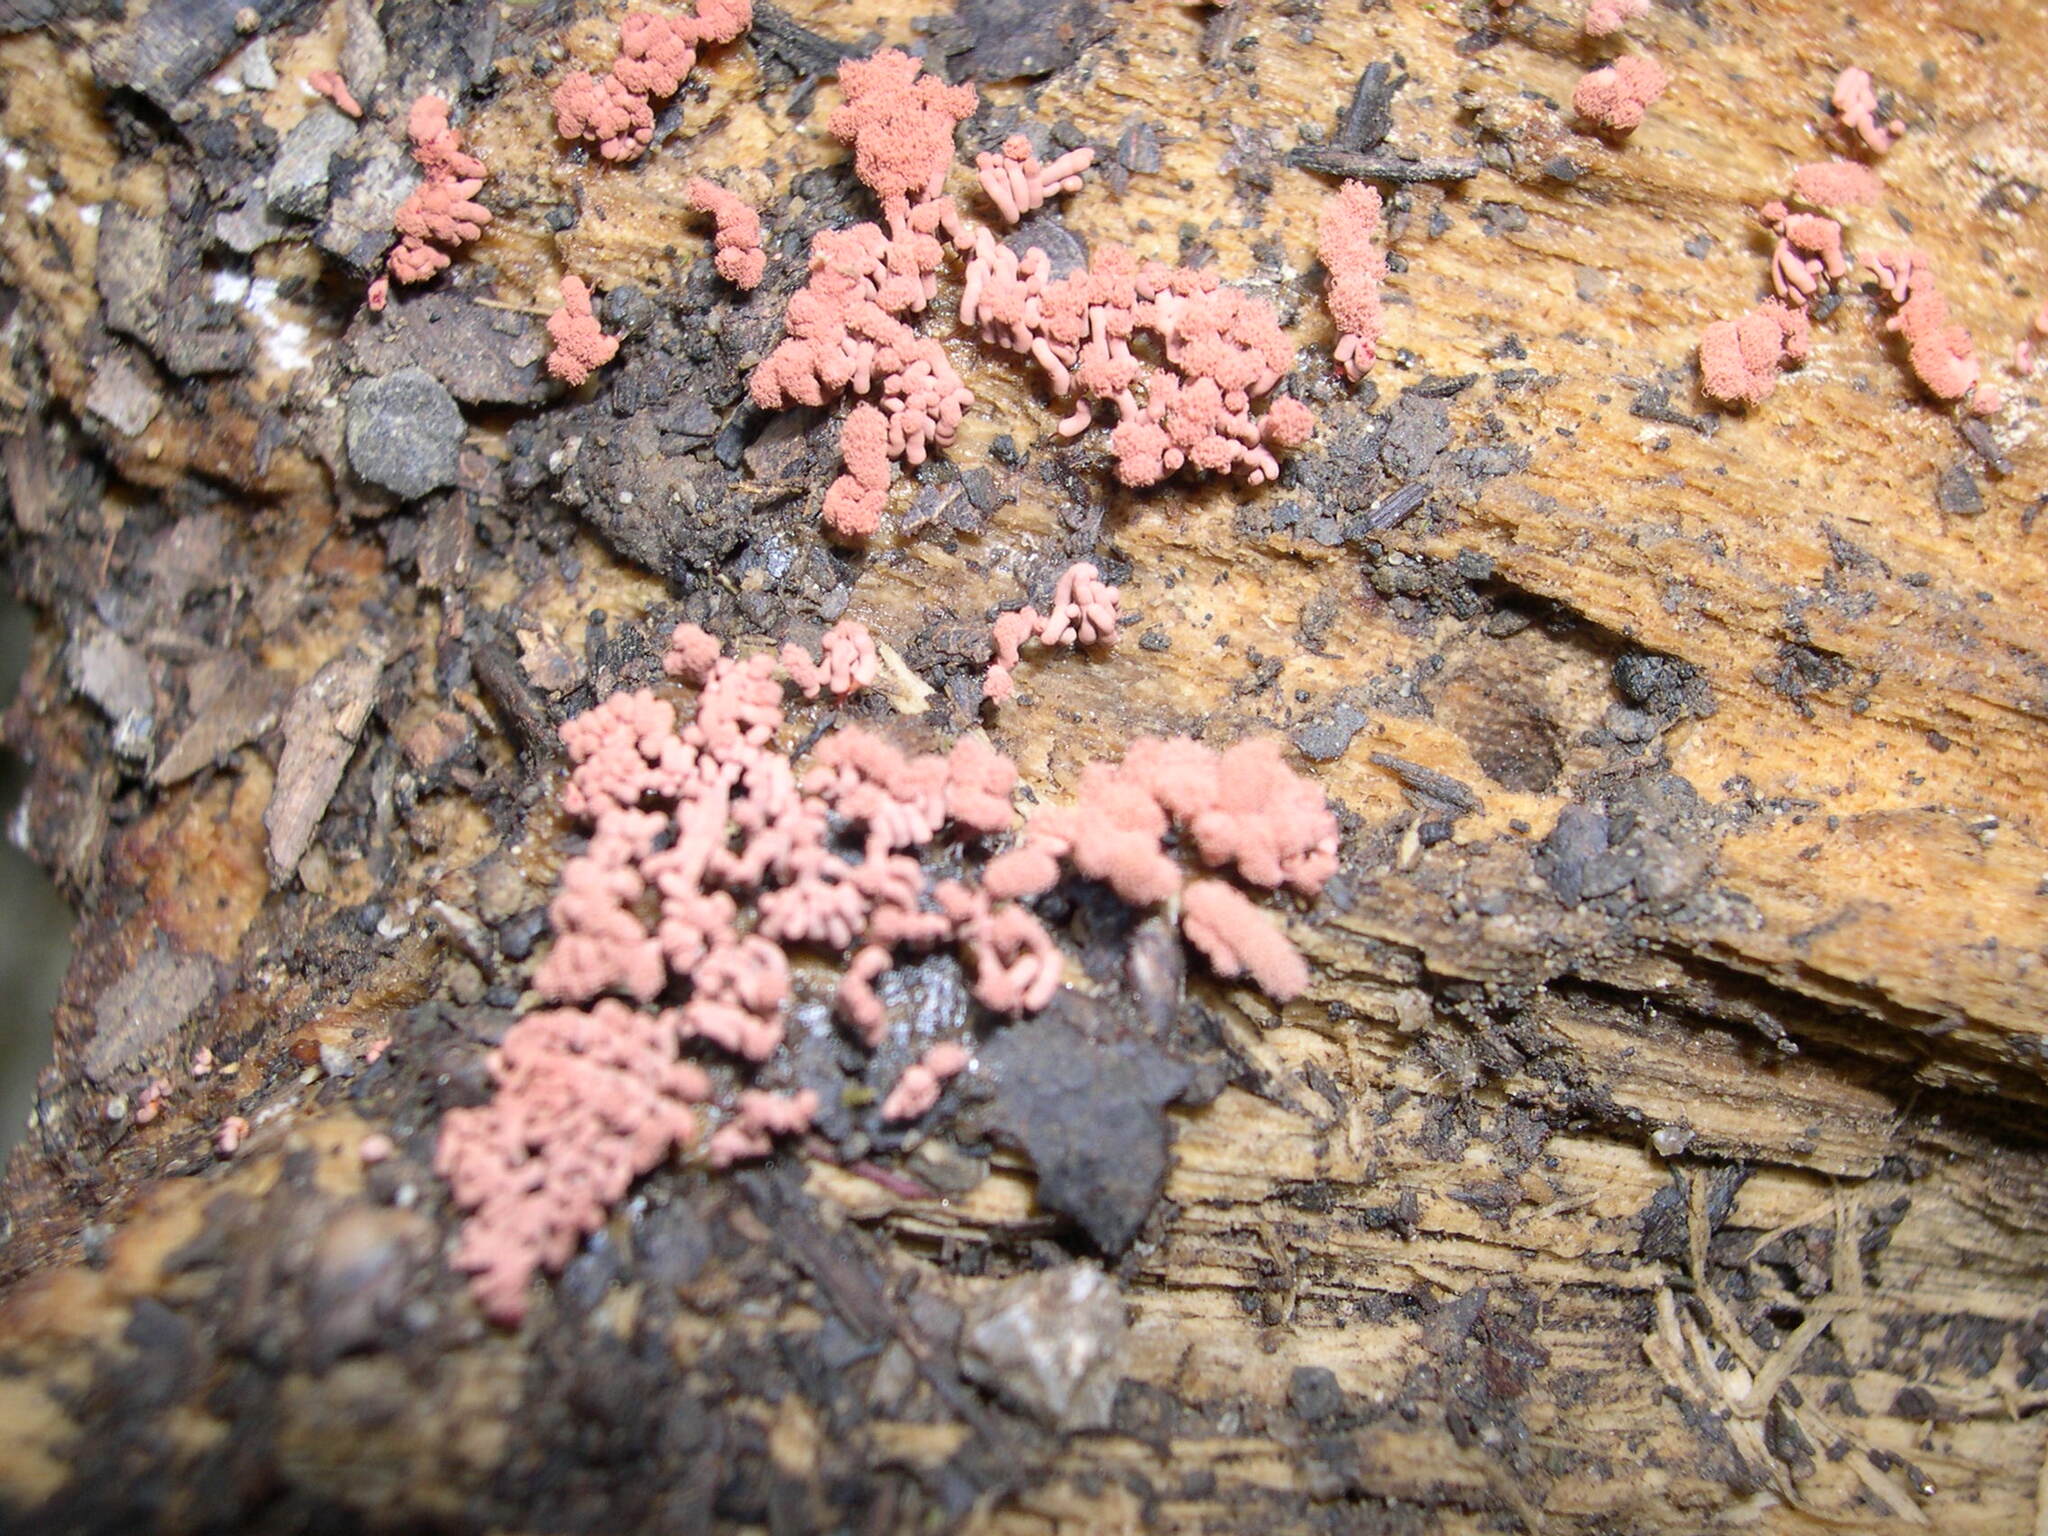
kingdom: Protozoa
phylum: Mycetozoa
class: Myxomycetes
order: Trichiales
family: Arcyriaceae
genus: Arcyria
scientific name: Arcyria denudata
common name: Carnival candy slime mold
